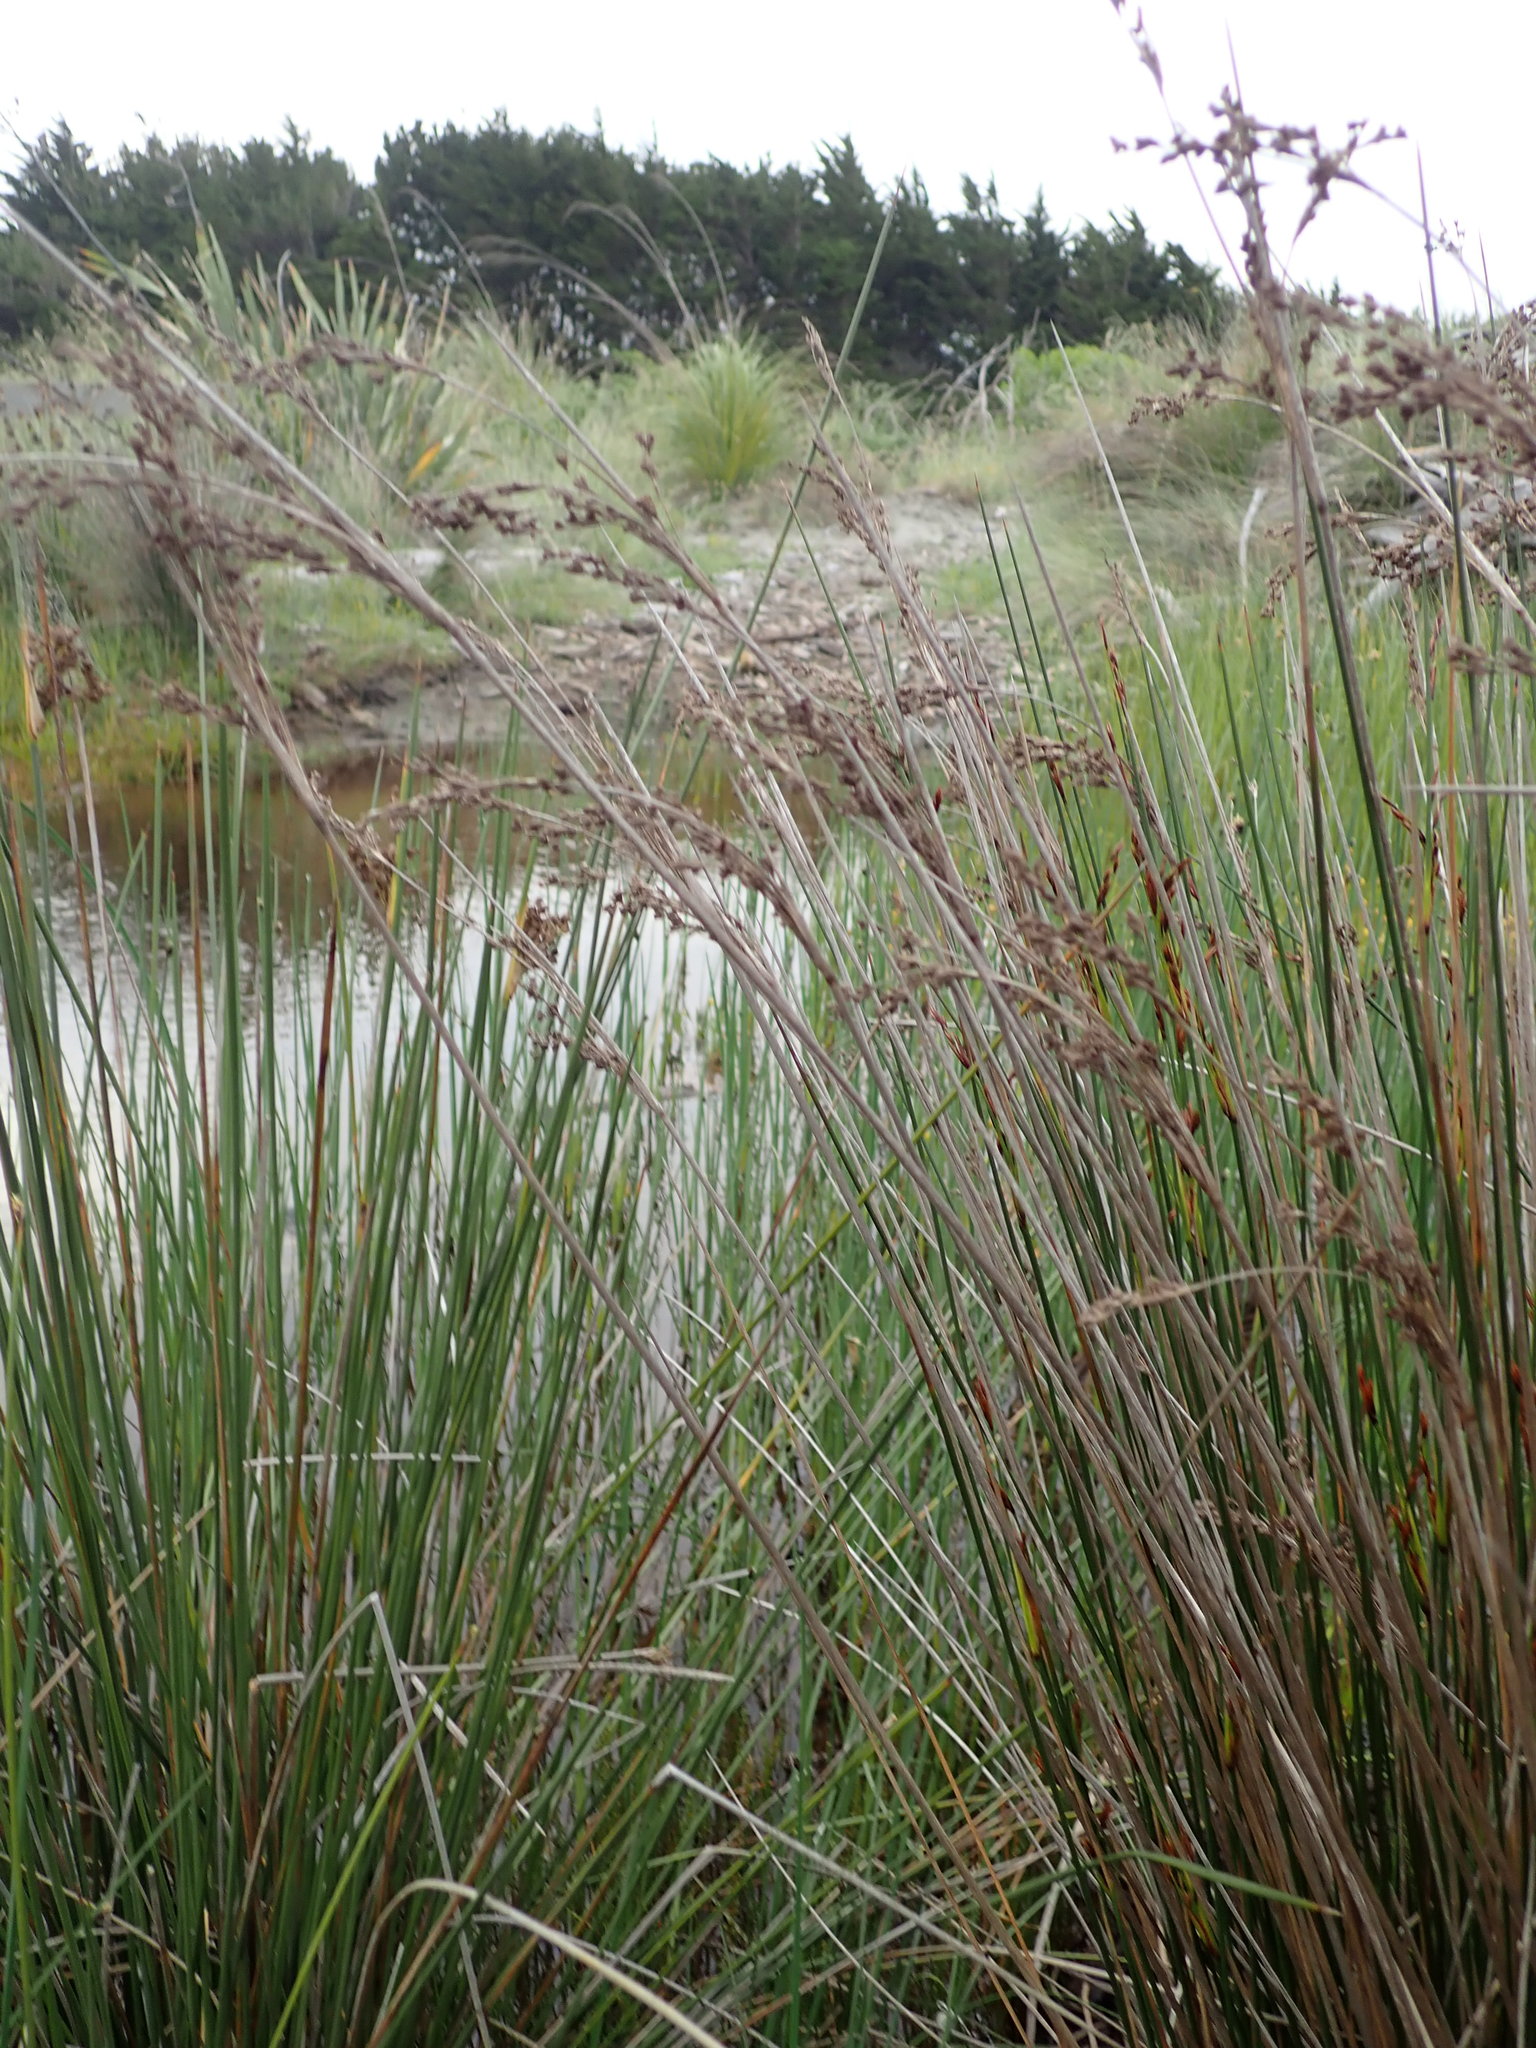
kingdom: Plantae
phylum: Tracheophyta
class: Liliopsida
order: Poales
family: Juncaceae
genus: Juncus
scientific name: Juncus kraussii
